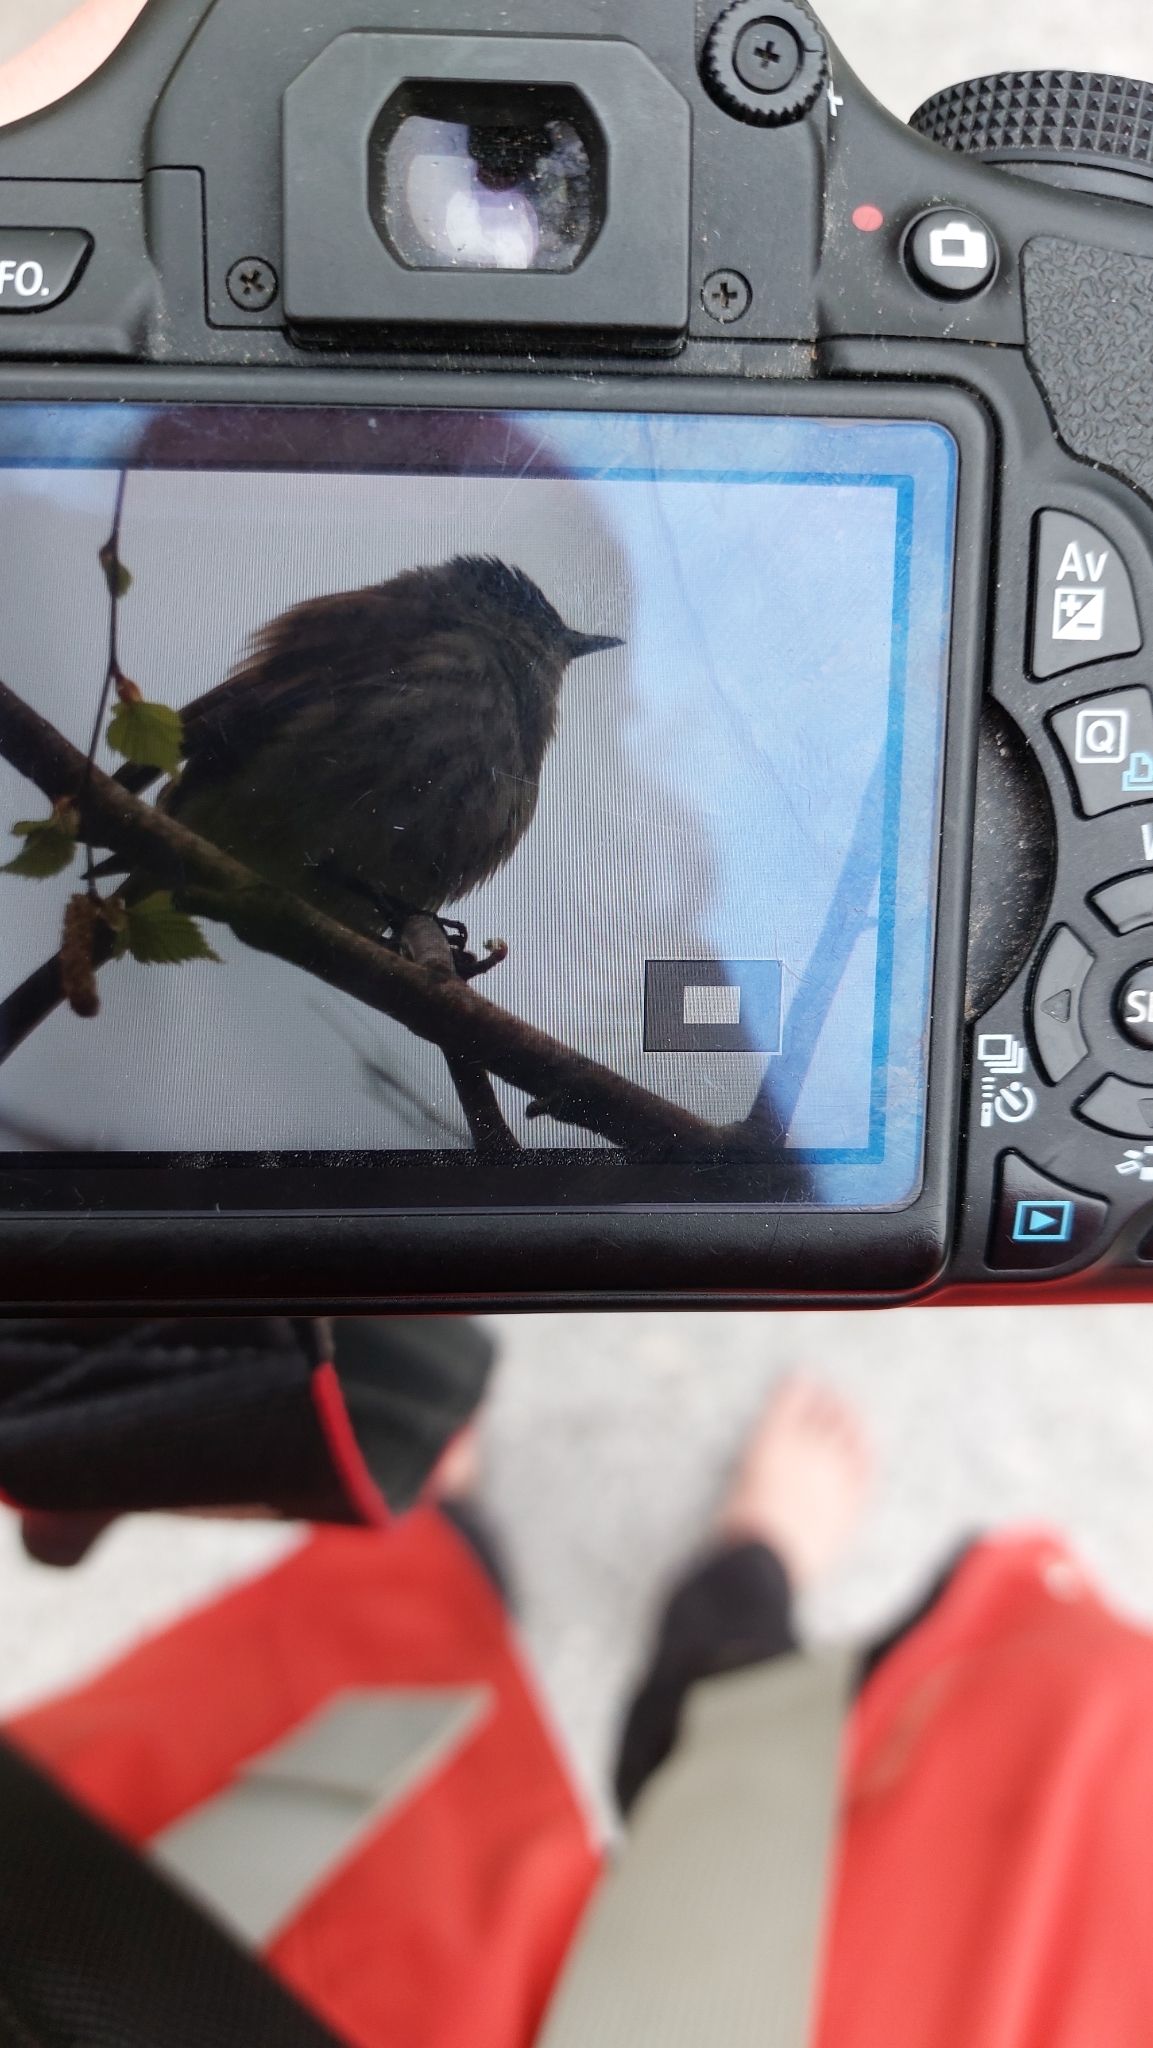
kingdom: Animalia
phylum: Chordata
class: Aves
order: Passeriformes
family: Sylviidae
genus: Sylvia
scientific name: Sylvia atricapilla
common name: Eurasian blackcap
